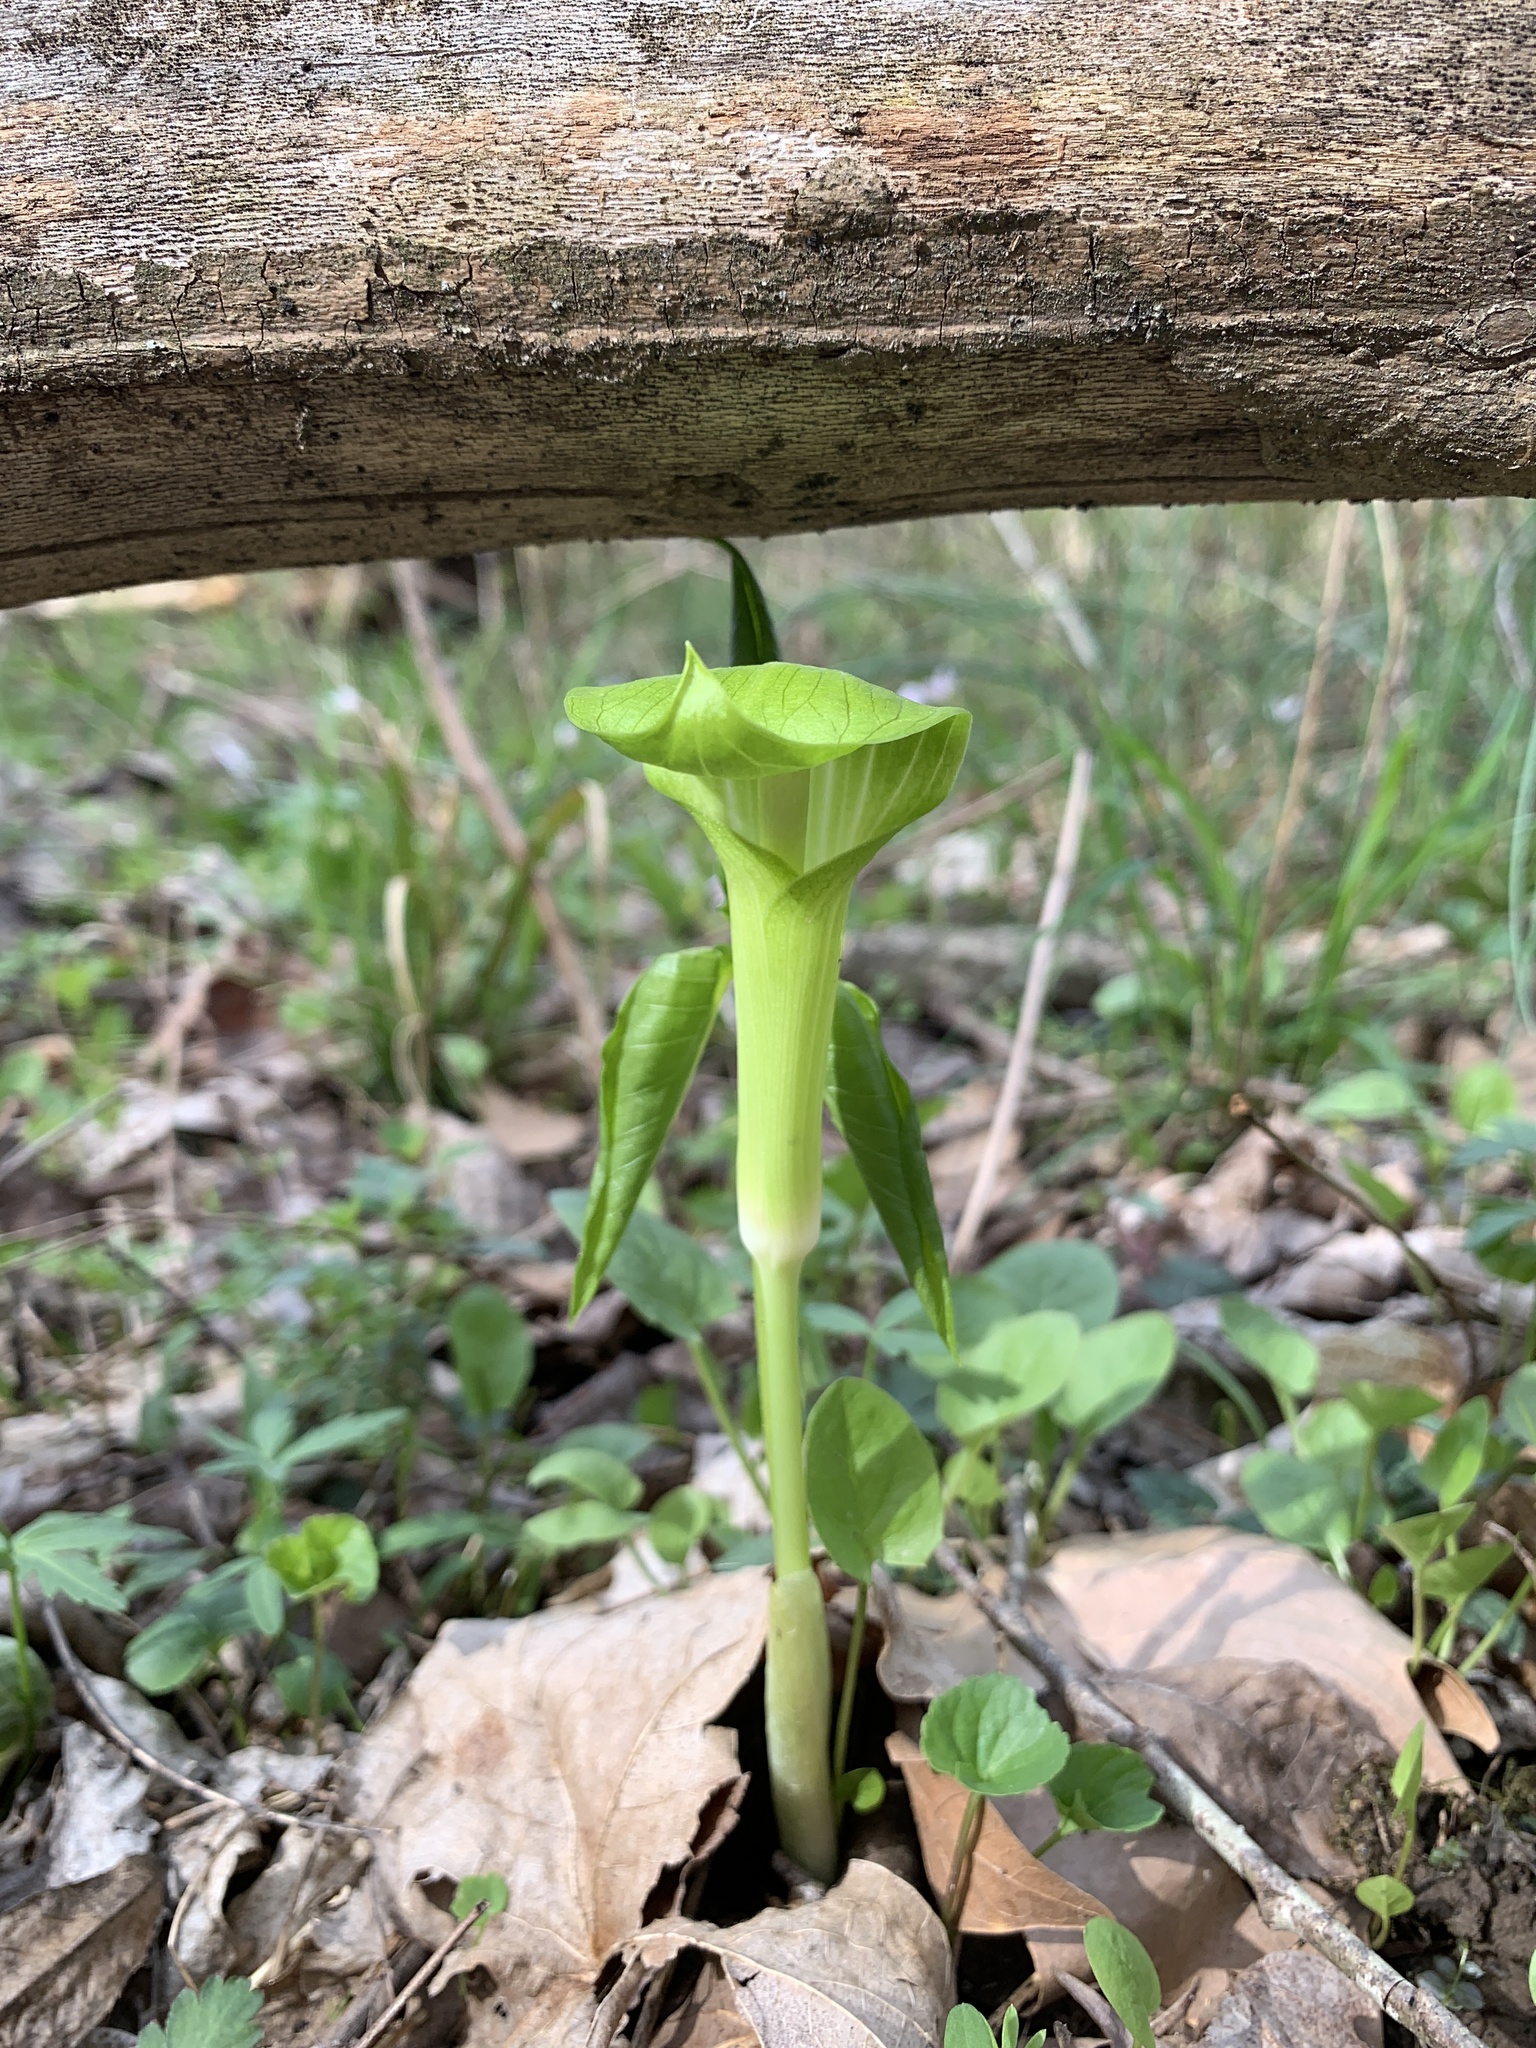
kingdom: Plantae
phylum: Tracheophyta
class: Liliopsida
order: Alismatales
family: Araceae
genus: Arisaema
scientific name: Arisaema triphyllum
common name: Jack-in-the-pulpit
